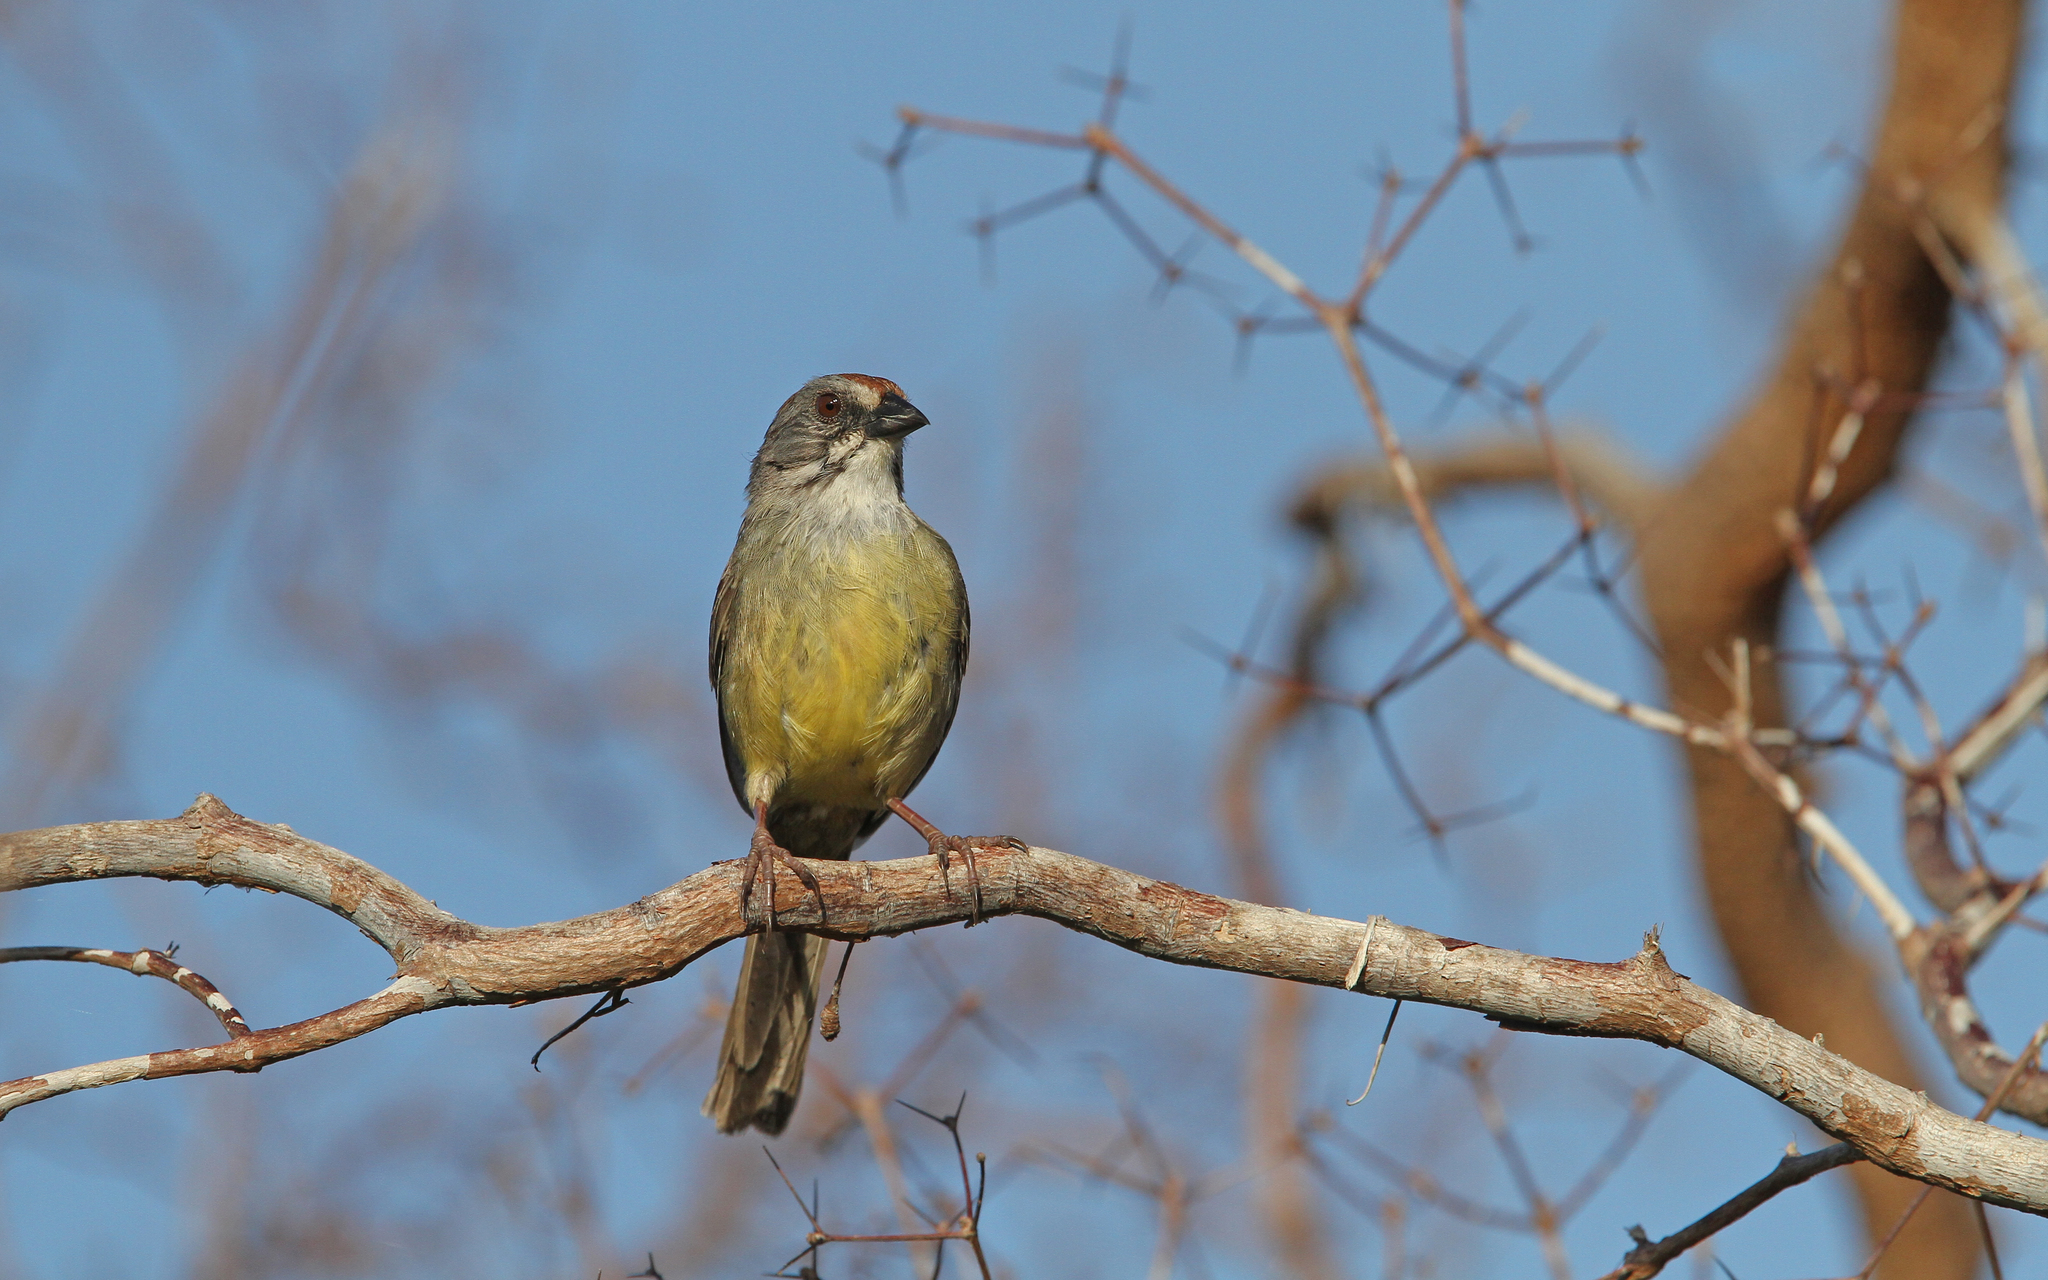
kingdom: Animalia
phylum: Chordata
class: Aves
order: Passeriformes
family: Passerellidae
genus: Torreornis
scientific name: Torreornis inexpectata
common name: Zapata sparrow
